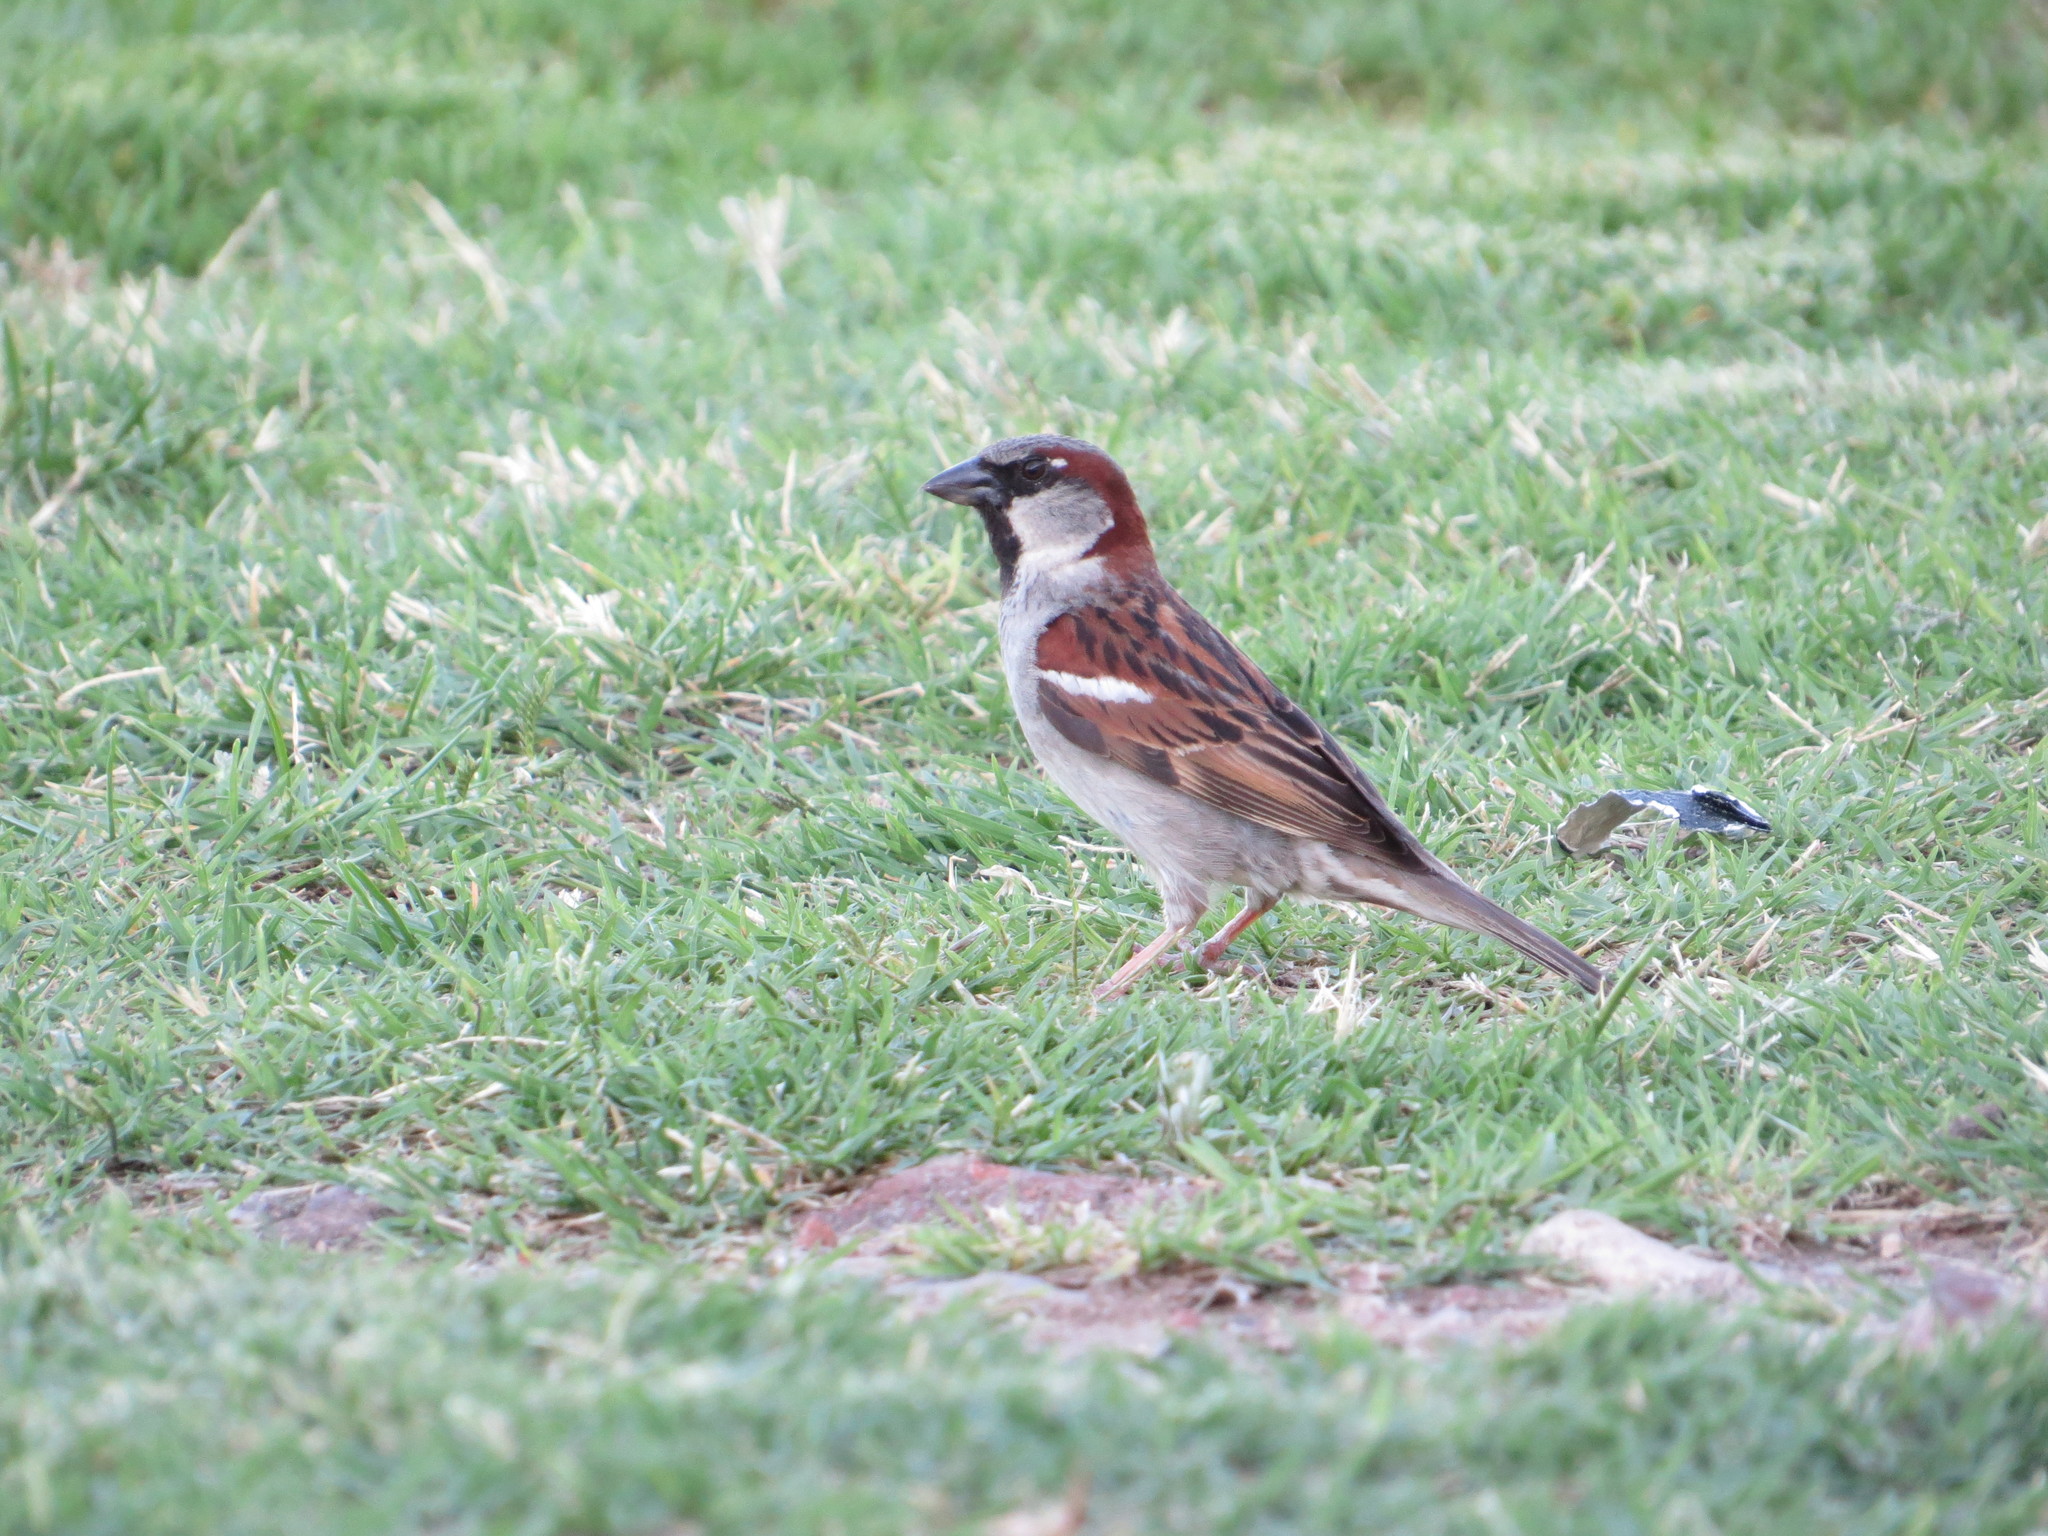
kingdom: Animalia
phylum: Chordata
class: Aves
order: Passeriformes
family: Passeridae
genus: Passer
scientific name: Passer domesticus
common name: House sparrow
